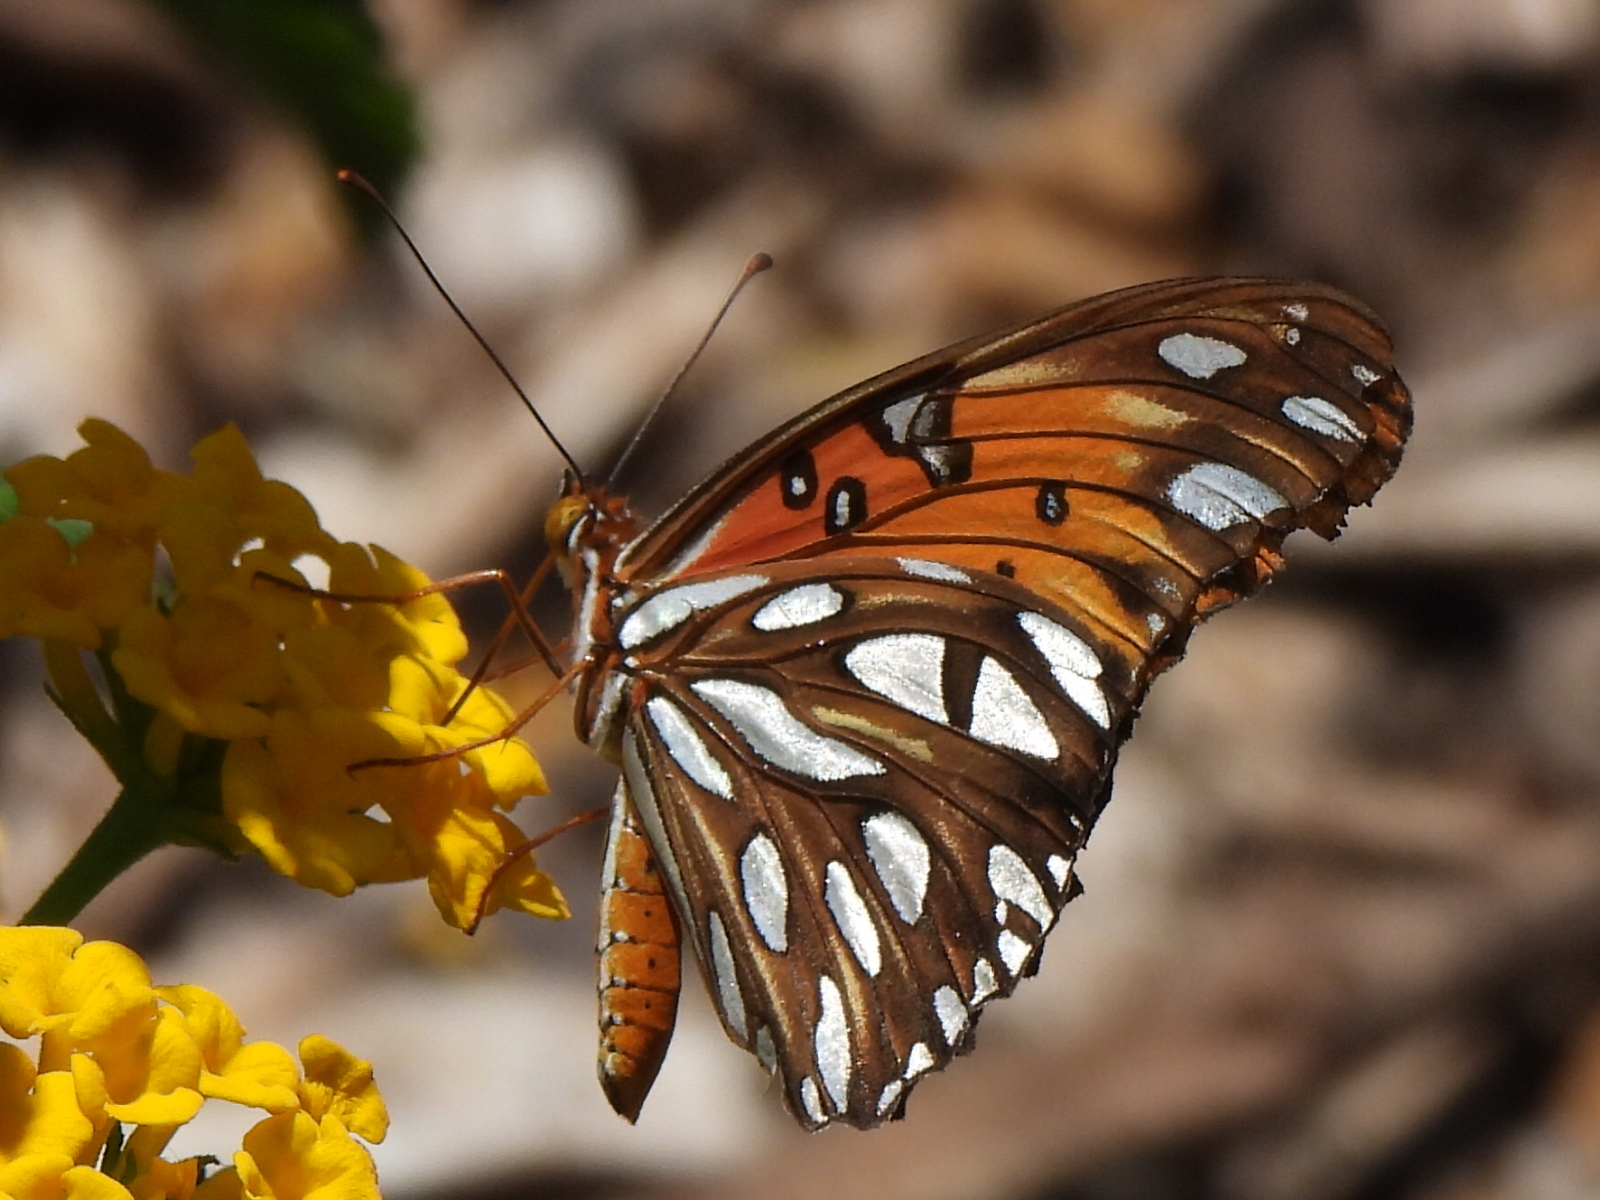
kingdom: Animalia
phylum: Arthropoda
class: Insecta
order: Lepidoptera
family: Nymphalidae
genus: Dione
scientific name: Dione vanillae
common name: Gulf fritillary
